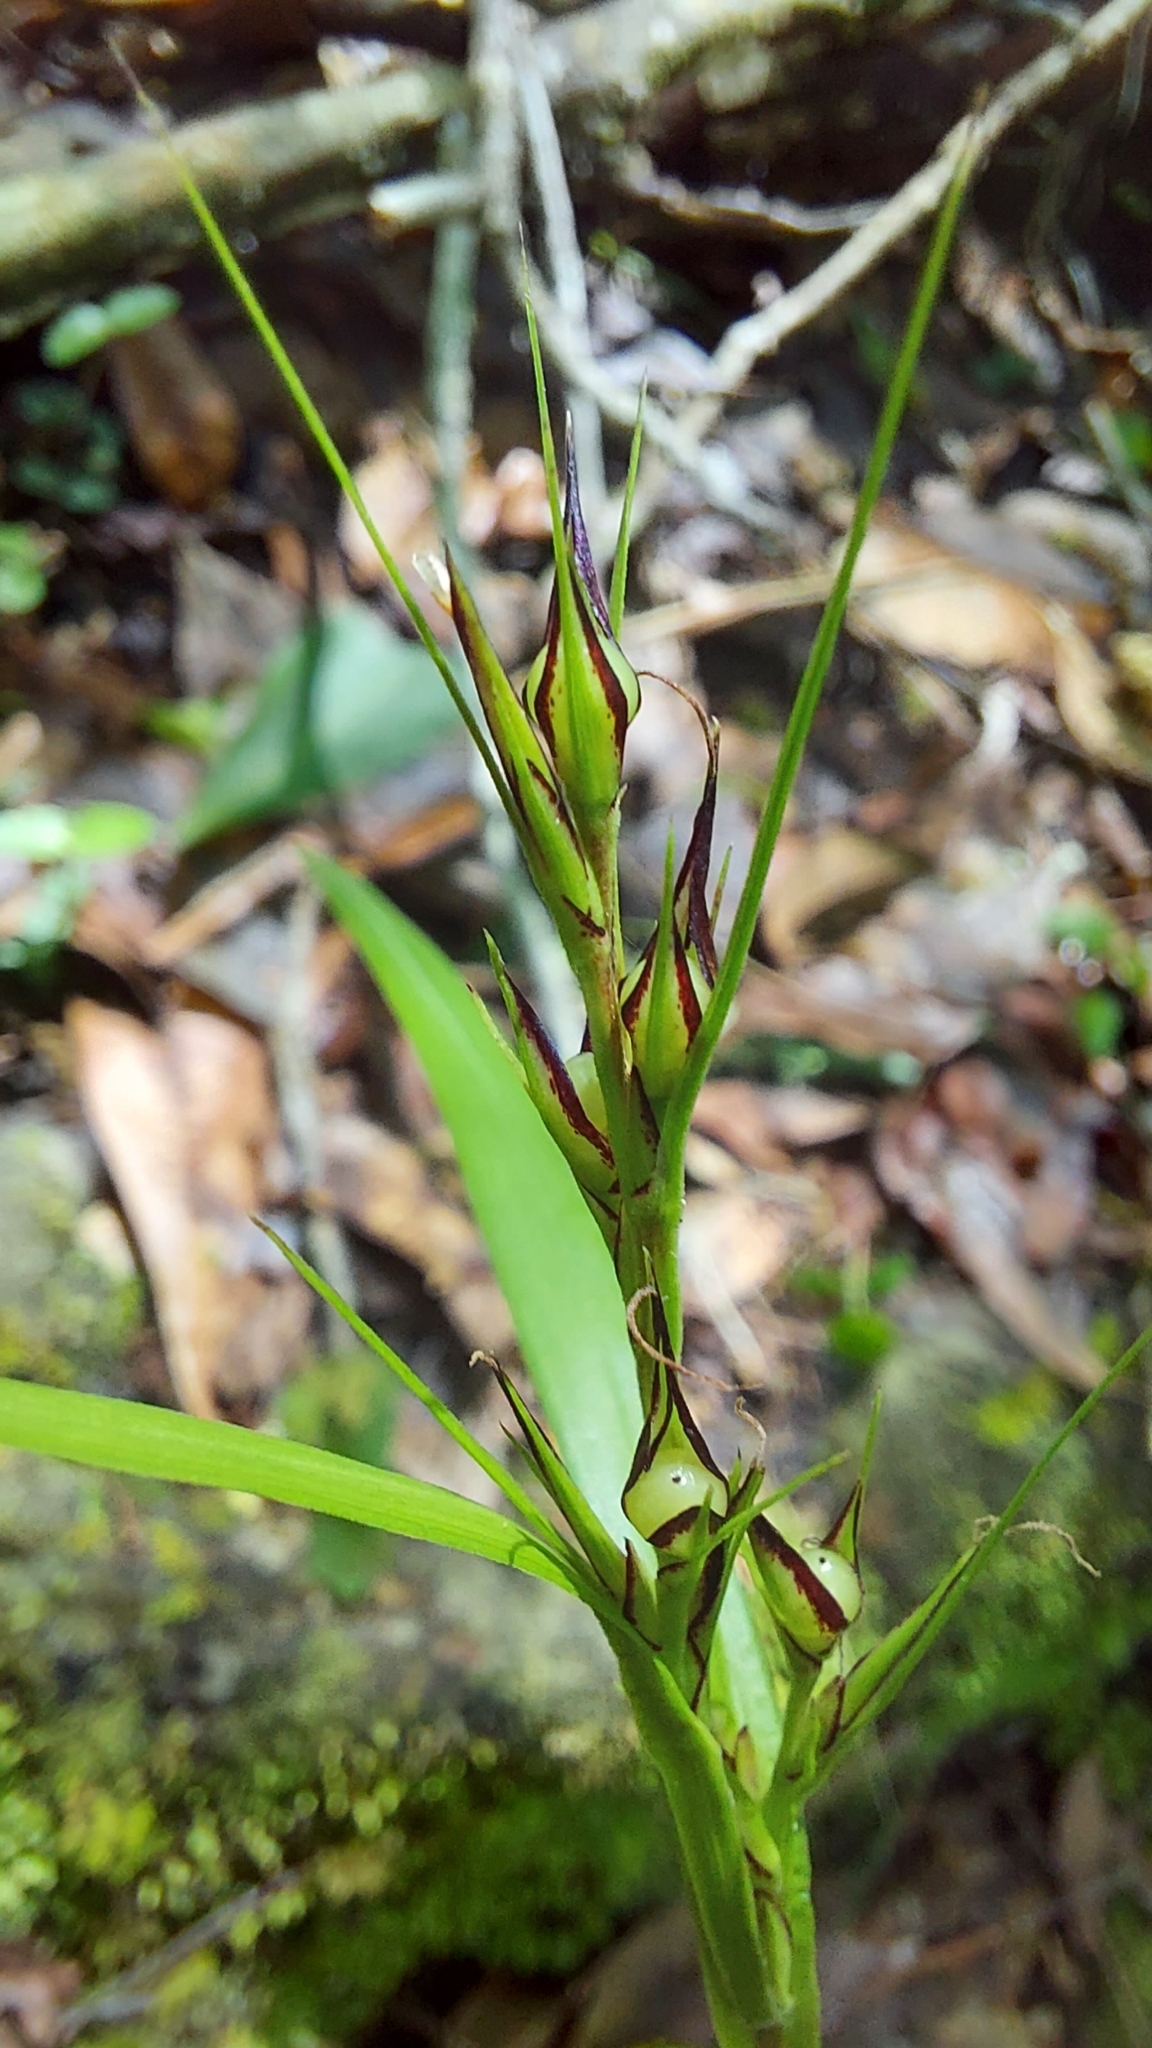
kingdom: Plantae
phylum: Tracheophyta
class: Liliopsida
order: Poales
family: Cyperaceae
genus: Scleria
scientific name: Scleria triglomerata
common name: Whip nutrush
